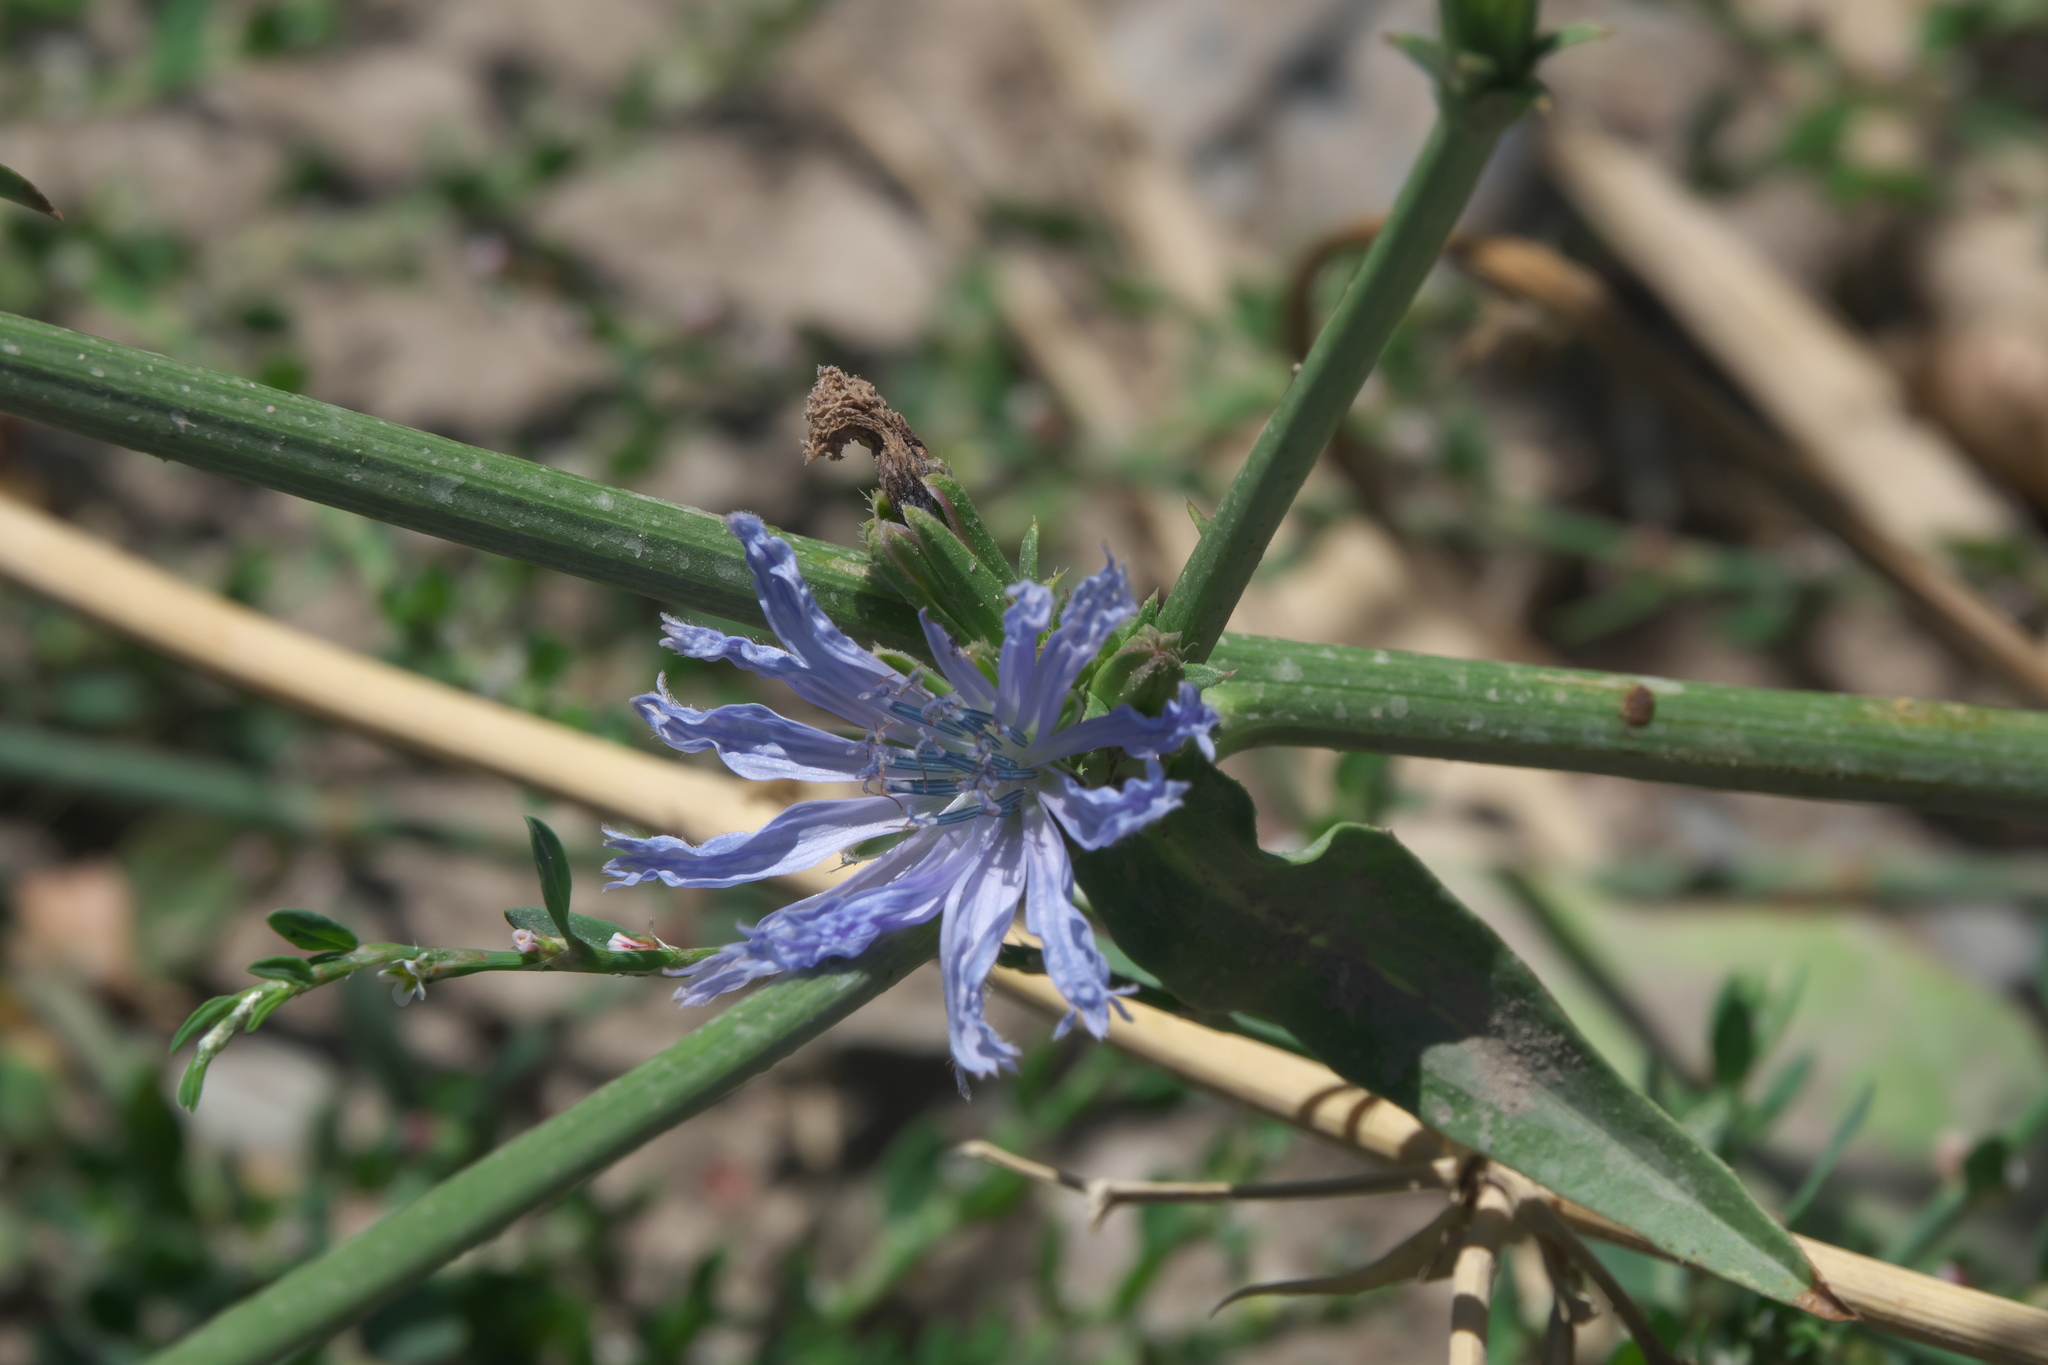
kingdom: Plantae
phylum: Tracheophyta
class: Magnoliopsida
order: Asterales
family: Asteraceae
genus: Cichorium
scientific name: Cichorium intybus
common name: Chicory
